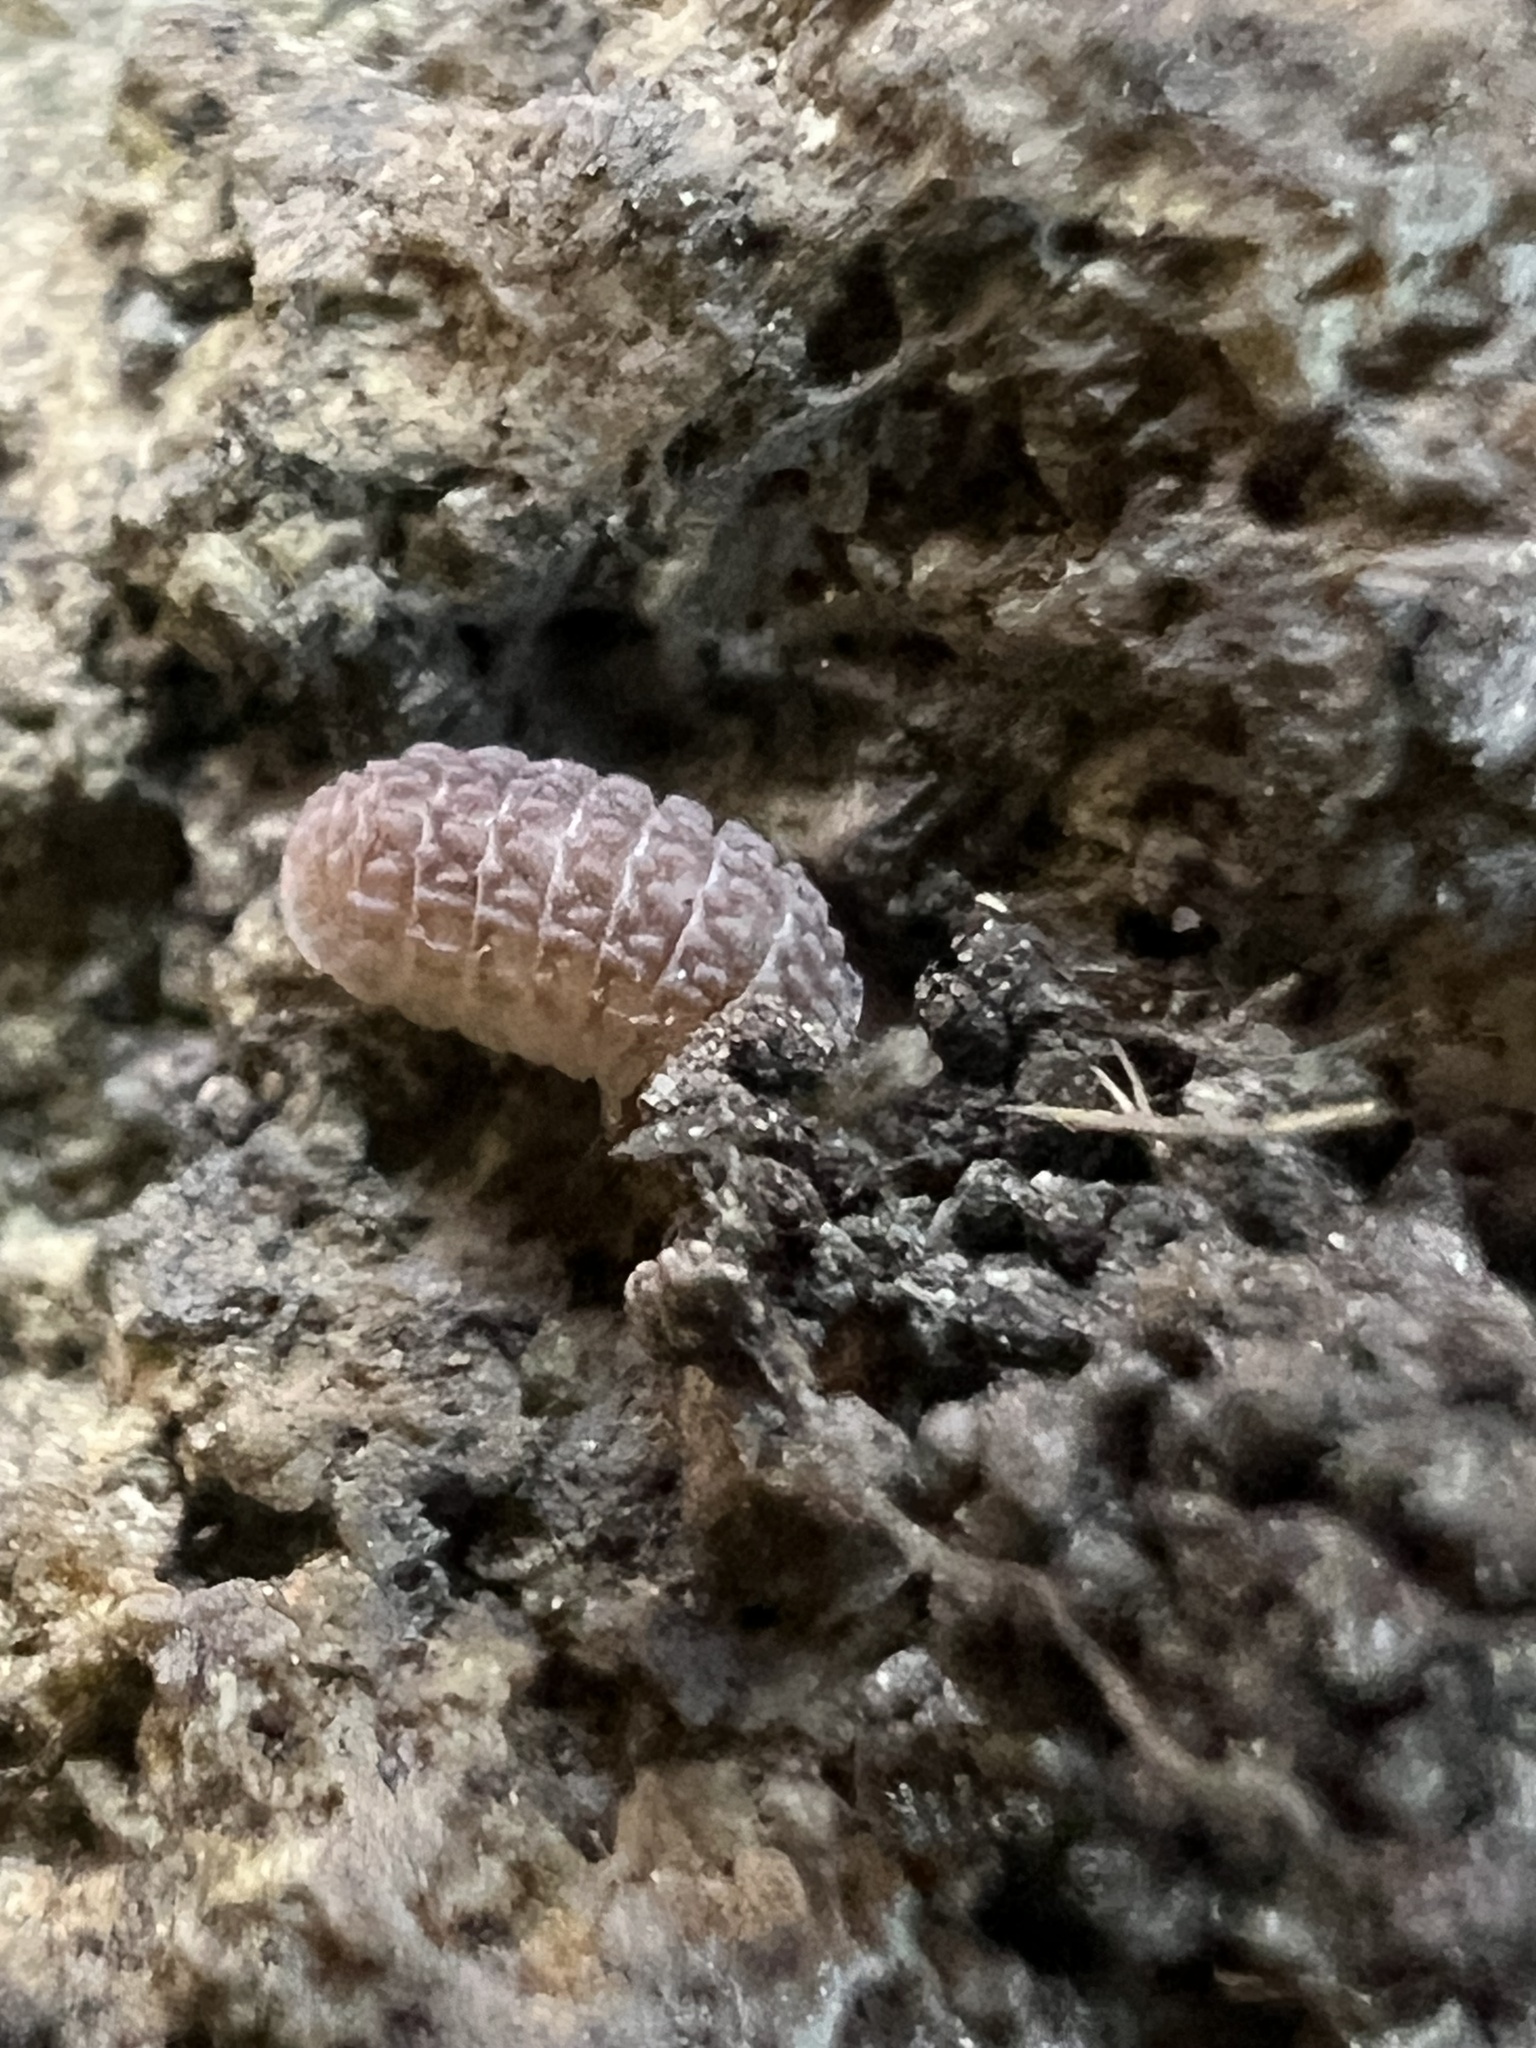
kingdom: Animalia
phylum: Arthropoda
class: Malacostraca
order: Isopoda
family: Armadillidae
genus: Ctenorillo
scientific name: Ctenorillo tuberosus
